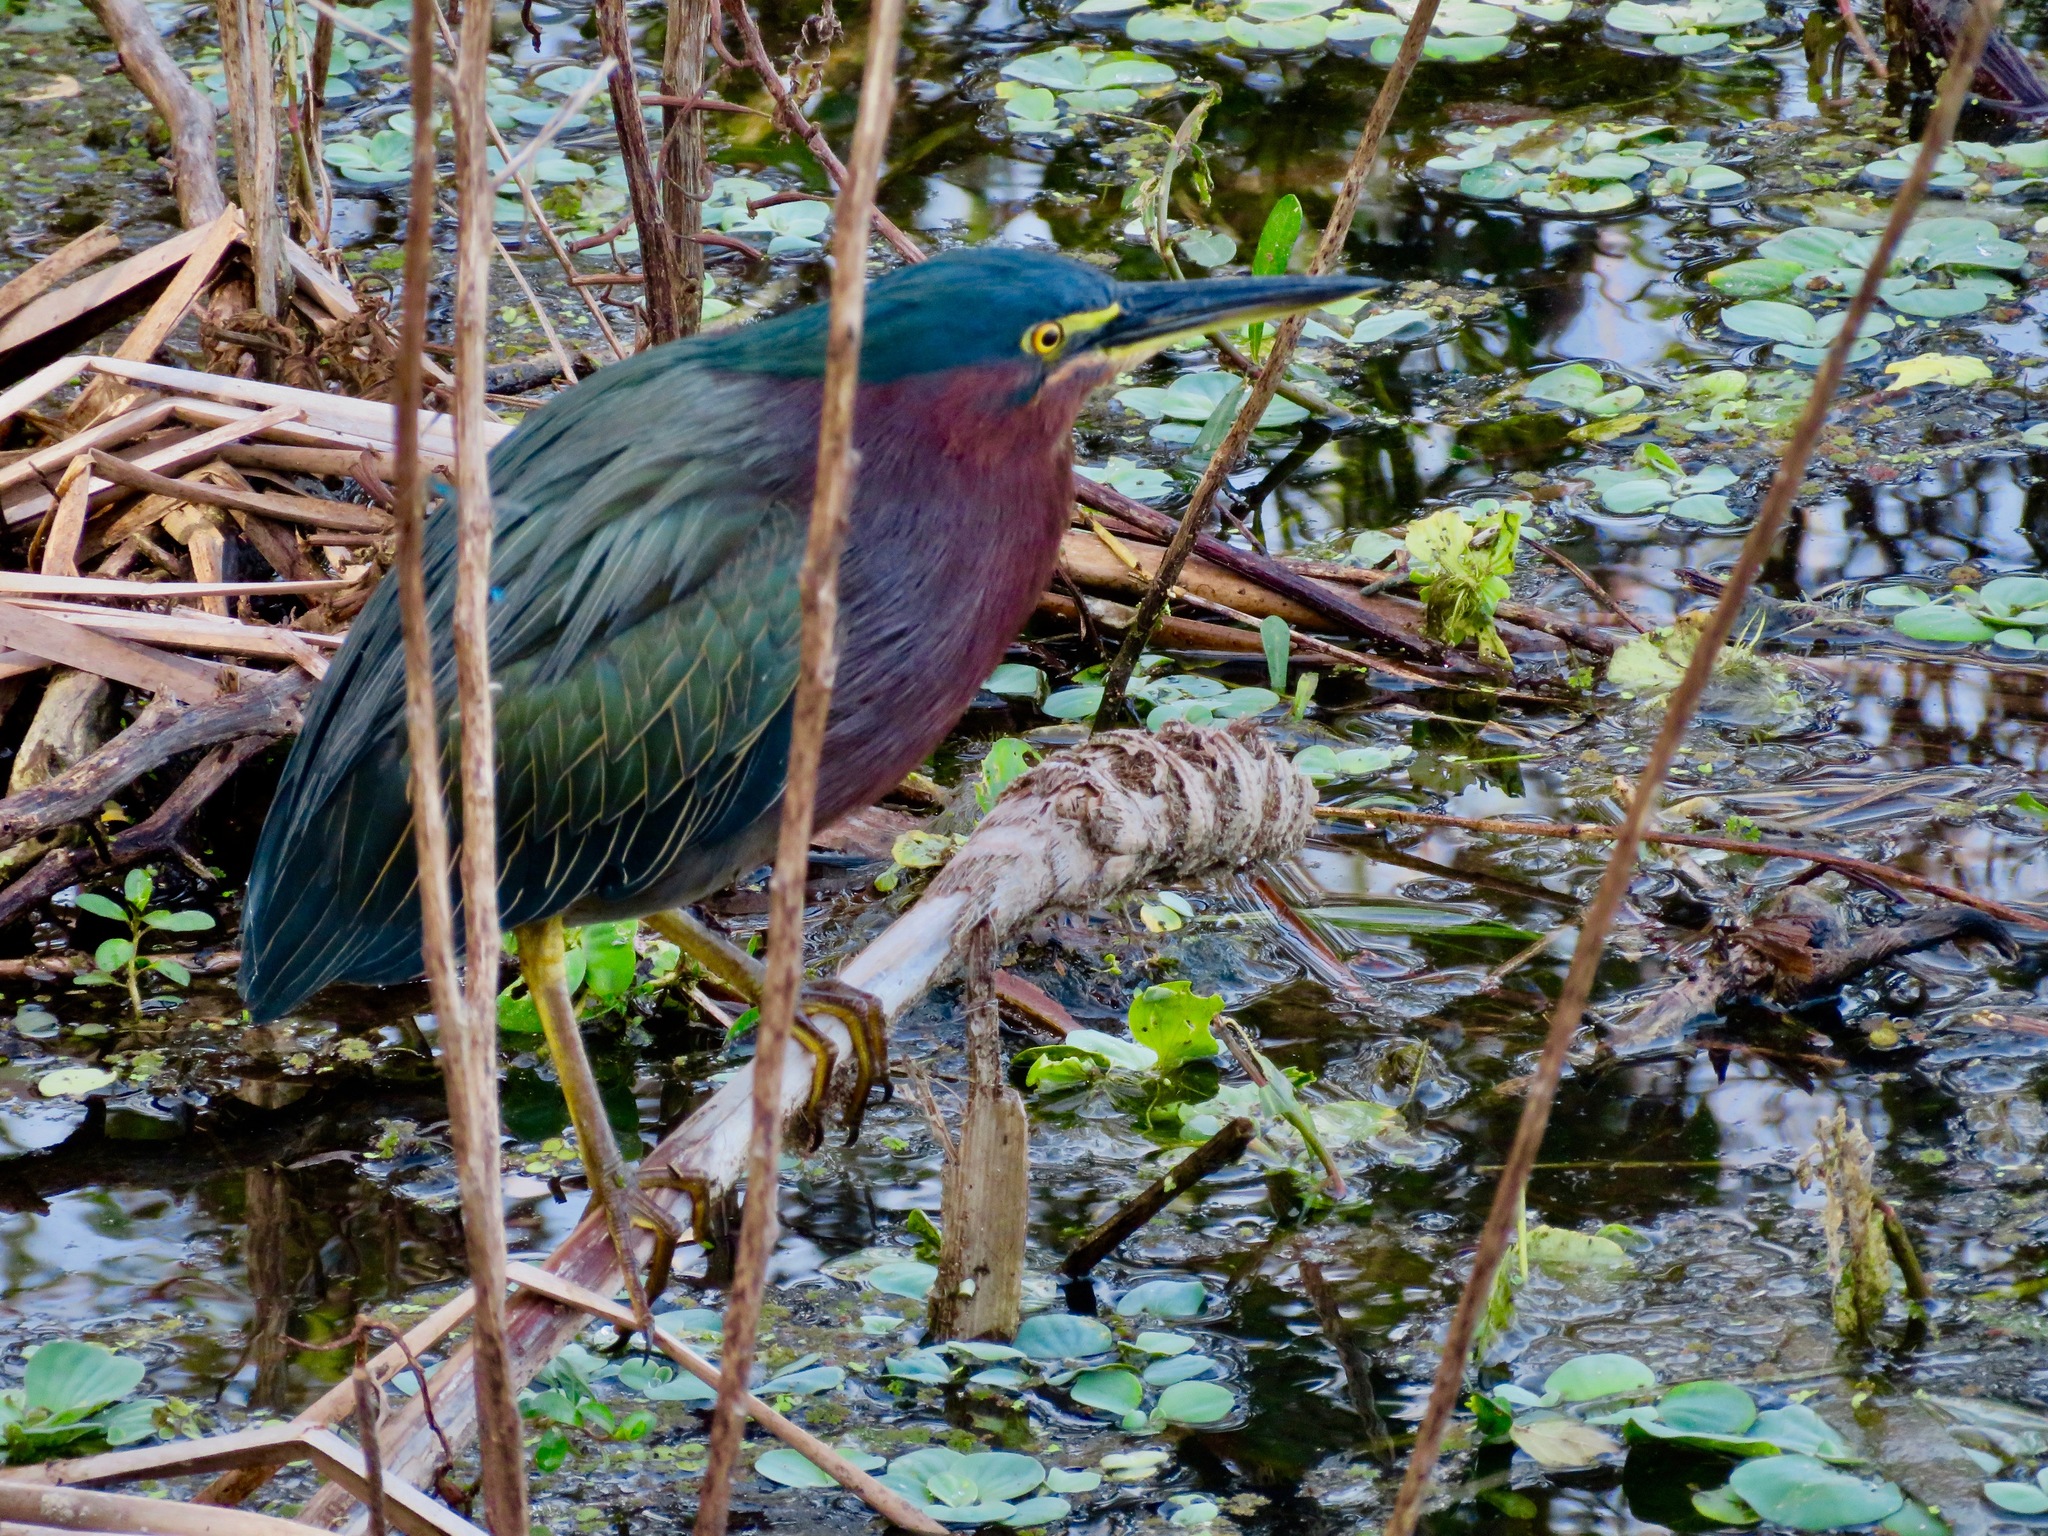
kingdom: Animalia
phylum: Chordata
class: Aves
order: Pelecaniformes
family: Ardeidae
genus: Butorides
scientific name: Butorides virescens
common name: Green heron
